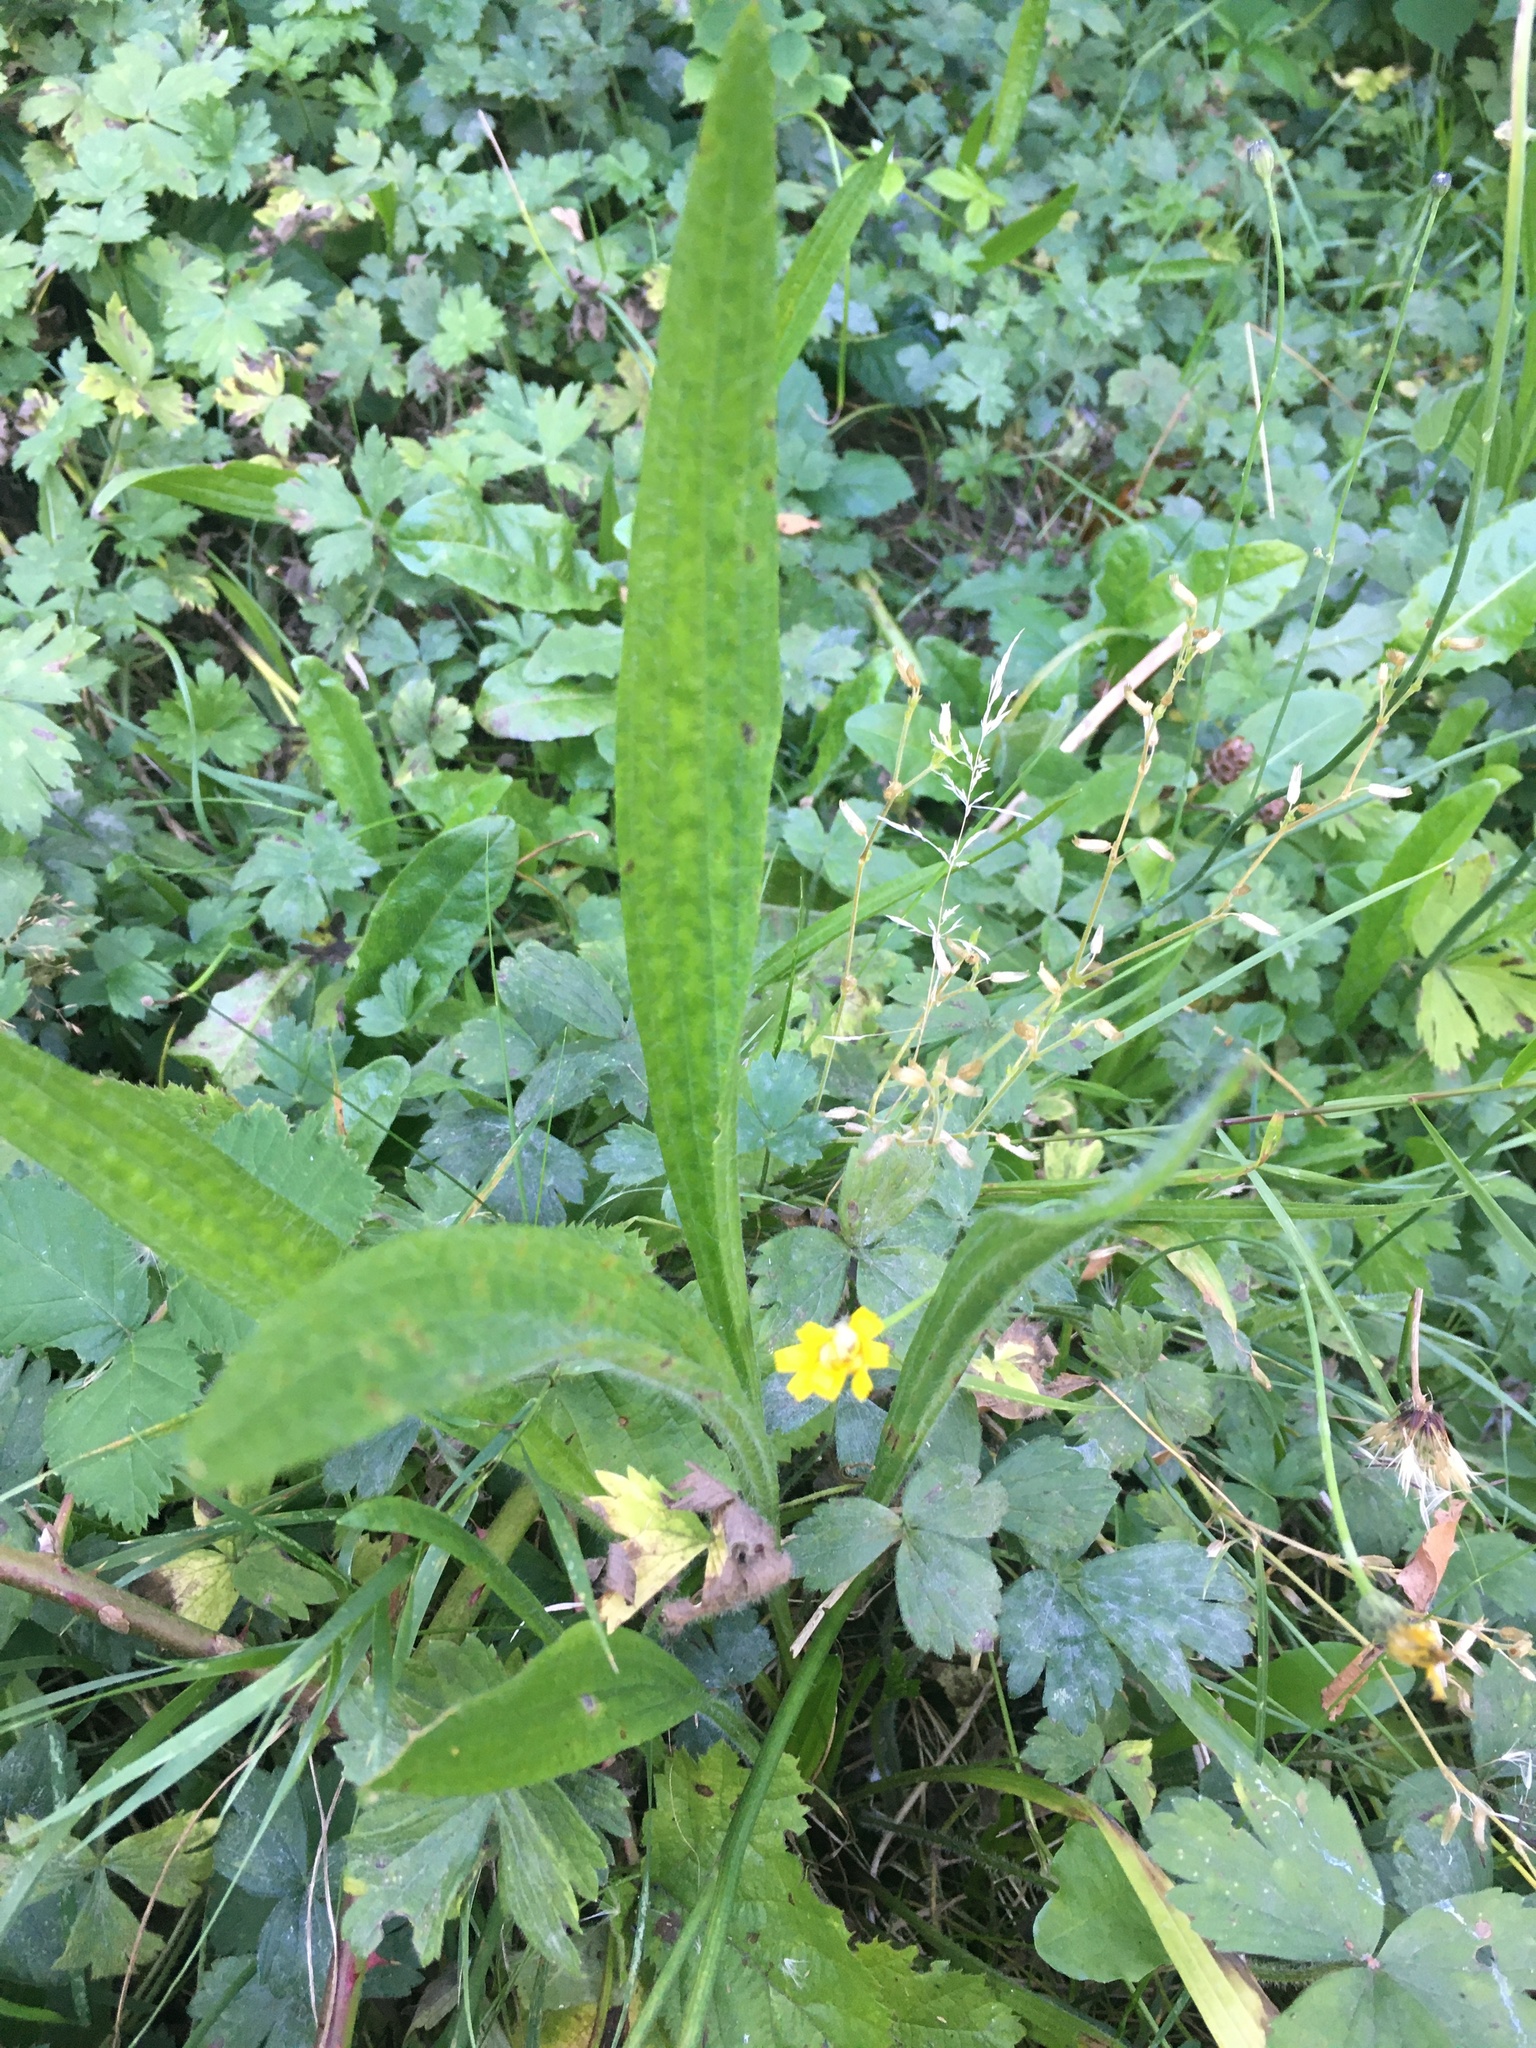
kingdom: Plantae
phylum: Tracheophyta
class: Magnoliopsida
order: Lamiales
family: Plantaginaceae
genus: Plantago
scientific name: Plantago lanceolata
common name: Ribwort plantain
